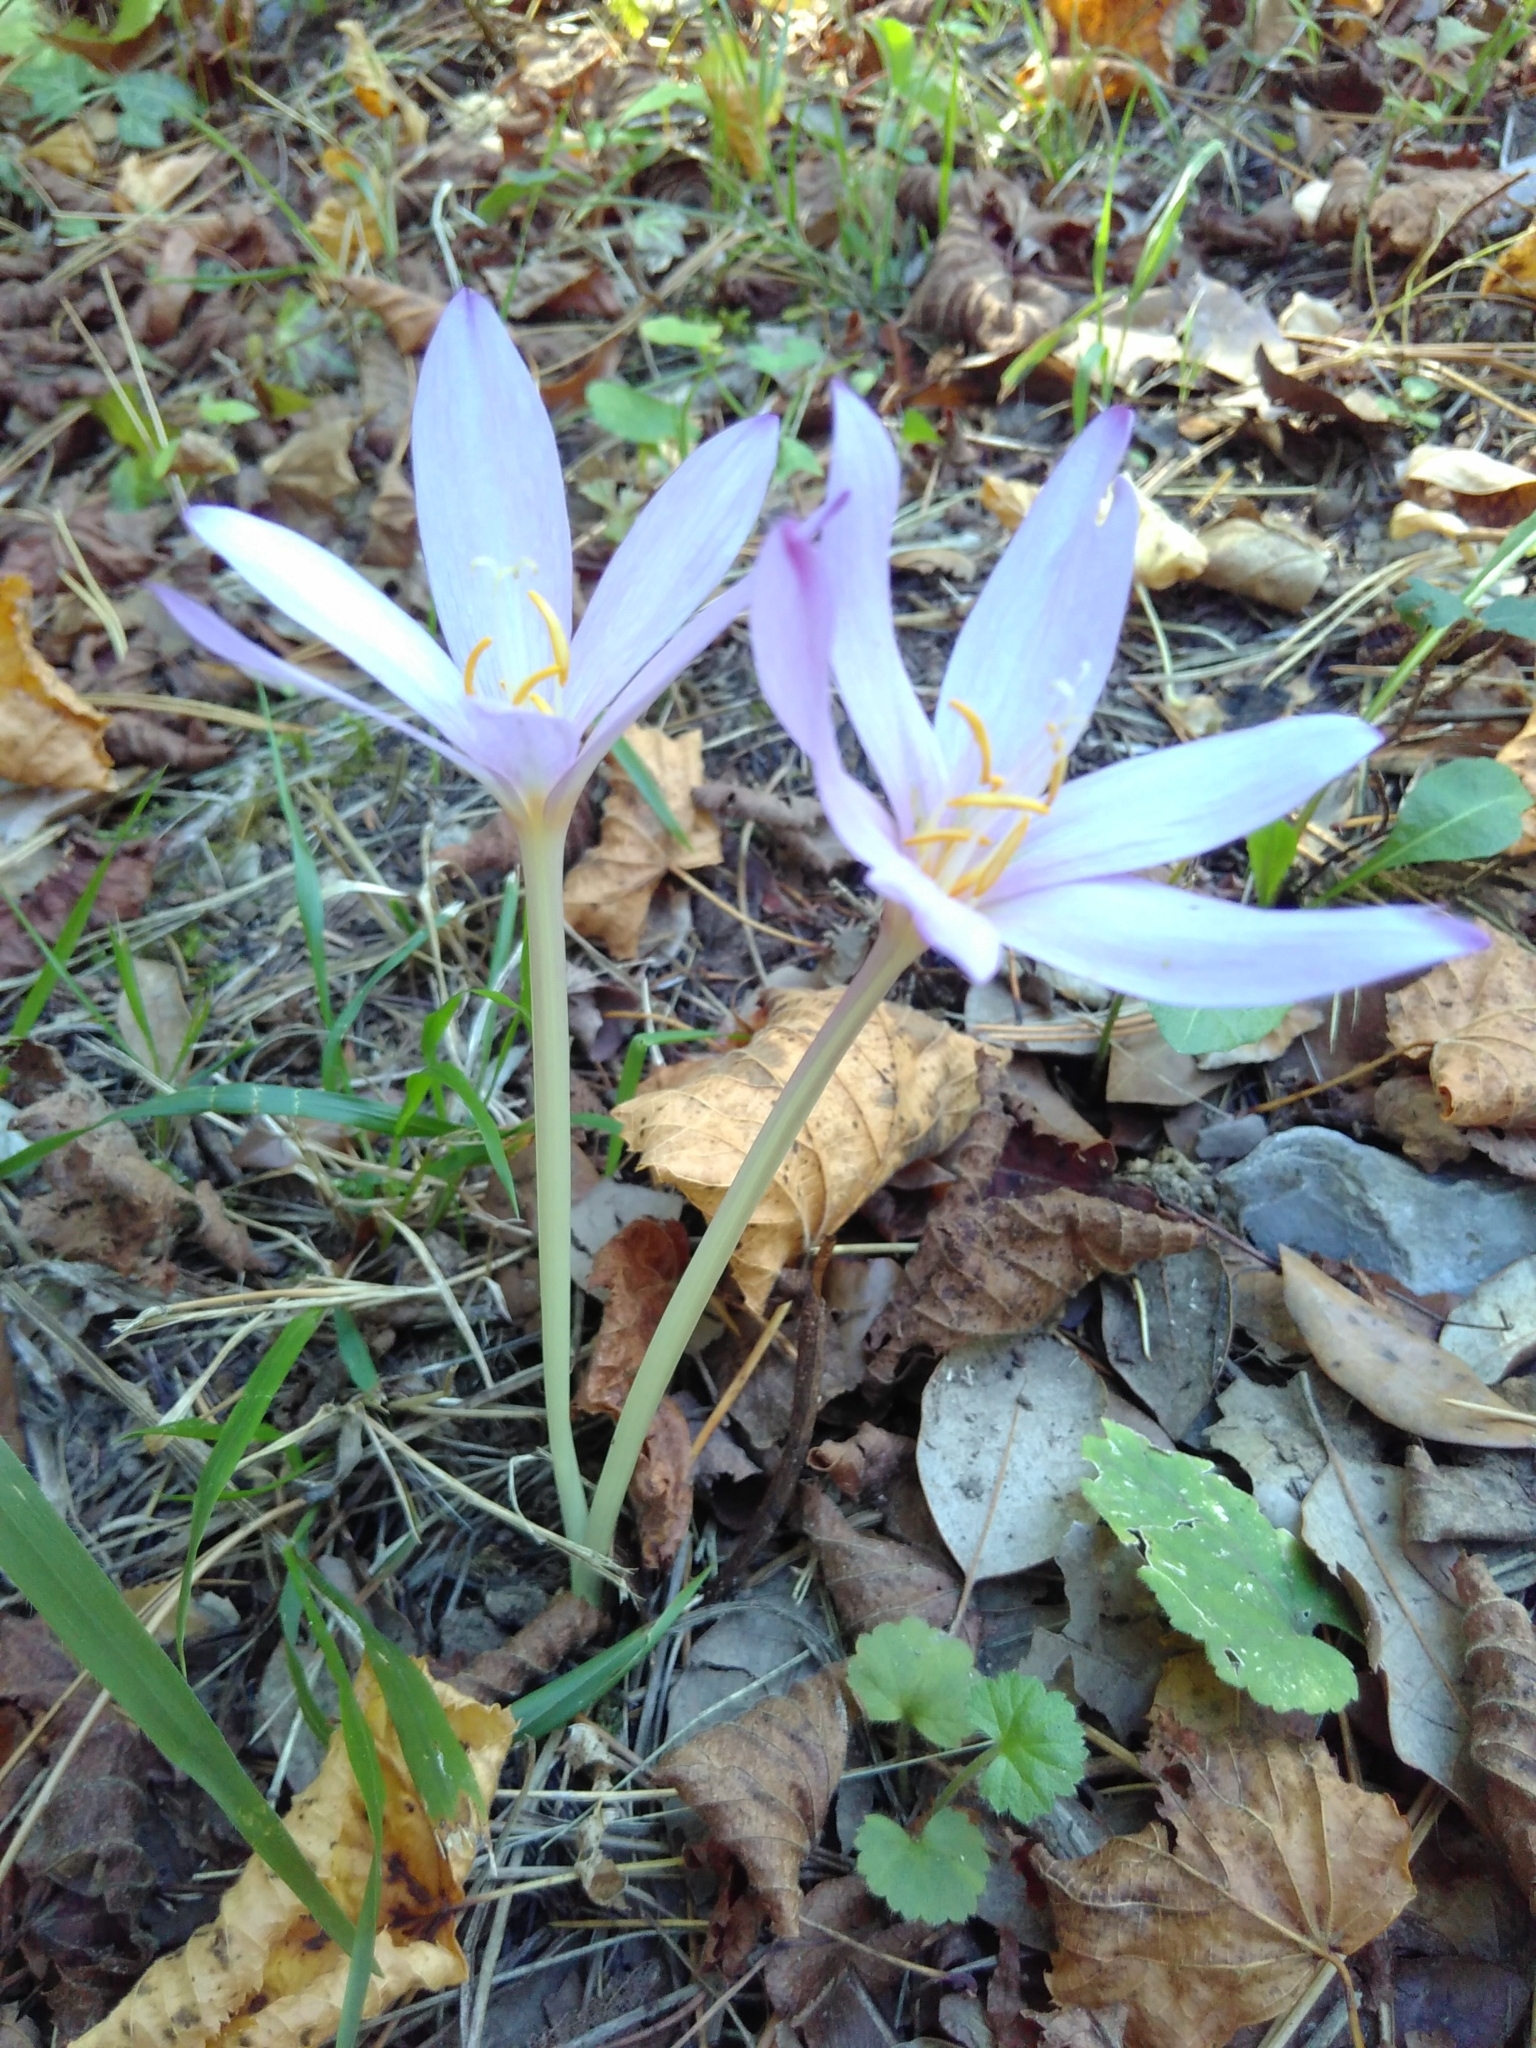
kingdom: Plantae
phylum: Tracheophyta
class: Liliopsida
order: Liliales
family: Colchicaceae
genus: Colchicum
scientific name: Colchicum autumnale
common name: Autumn crocus
